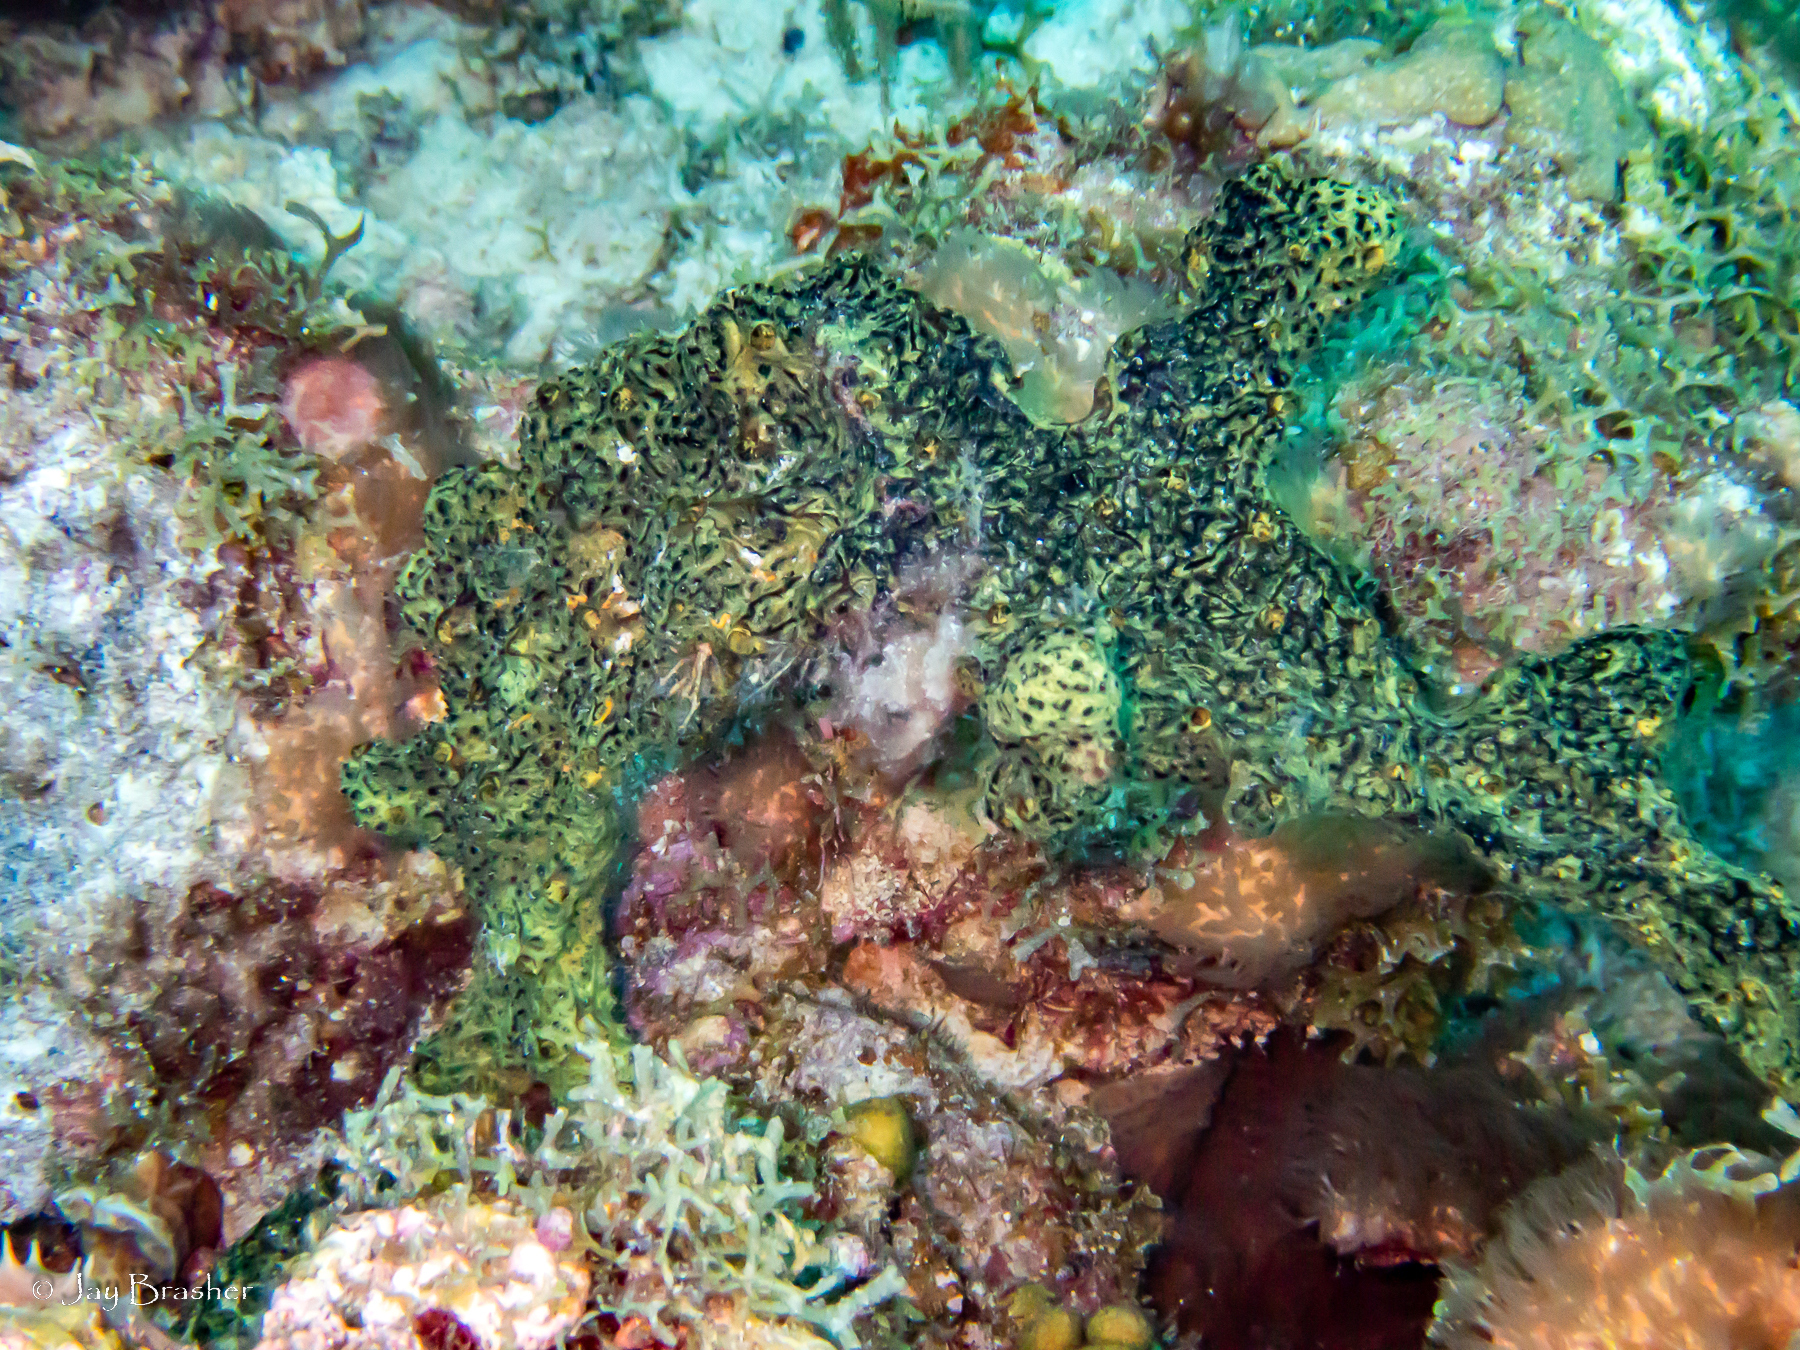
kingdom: Animalia
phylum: Porifera
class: Demospongiae
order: Poecilosclerida
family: Iotrochotidae
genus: Iotrochota
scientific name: Iotrochota birotulata
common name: Purple bleeding sponge
